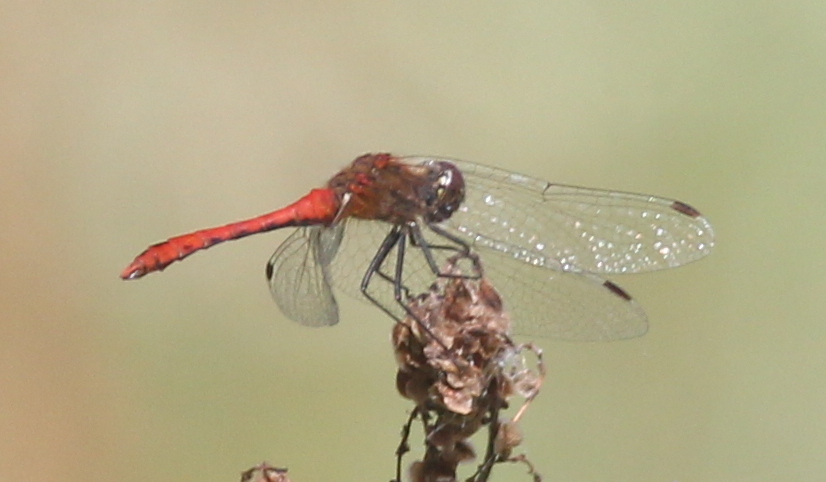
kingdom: Animalia
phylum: Arthropoda
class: Insecta
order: Odonata
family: Libellulidae
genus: Sympetrum
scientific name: Sympetrum sanguineum
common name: Ruddy darter
